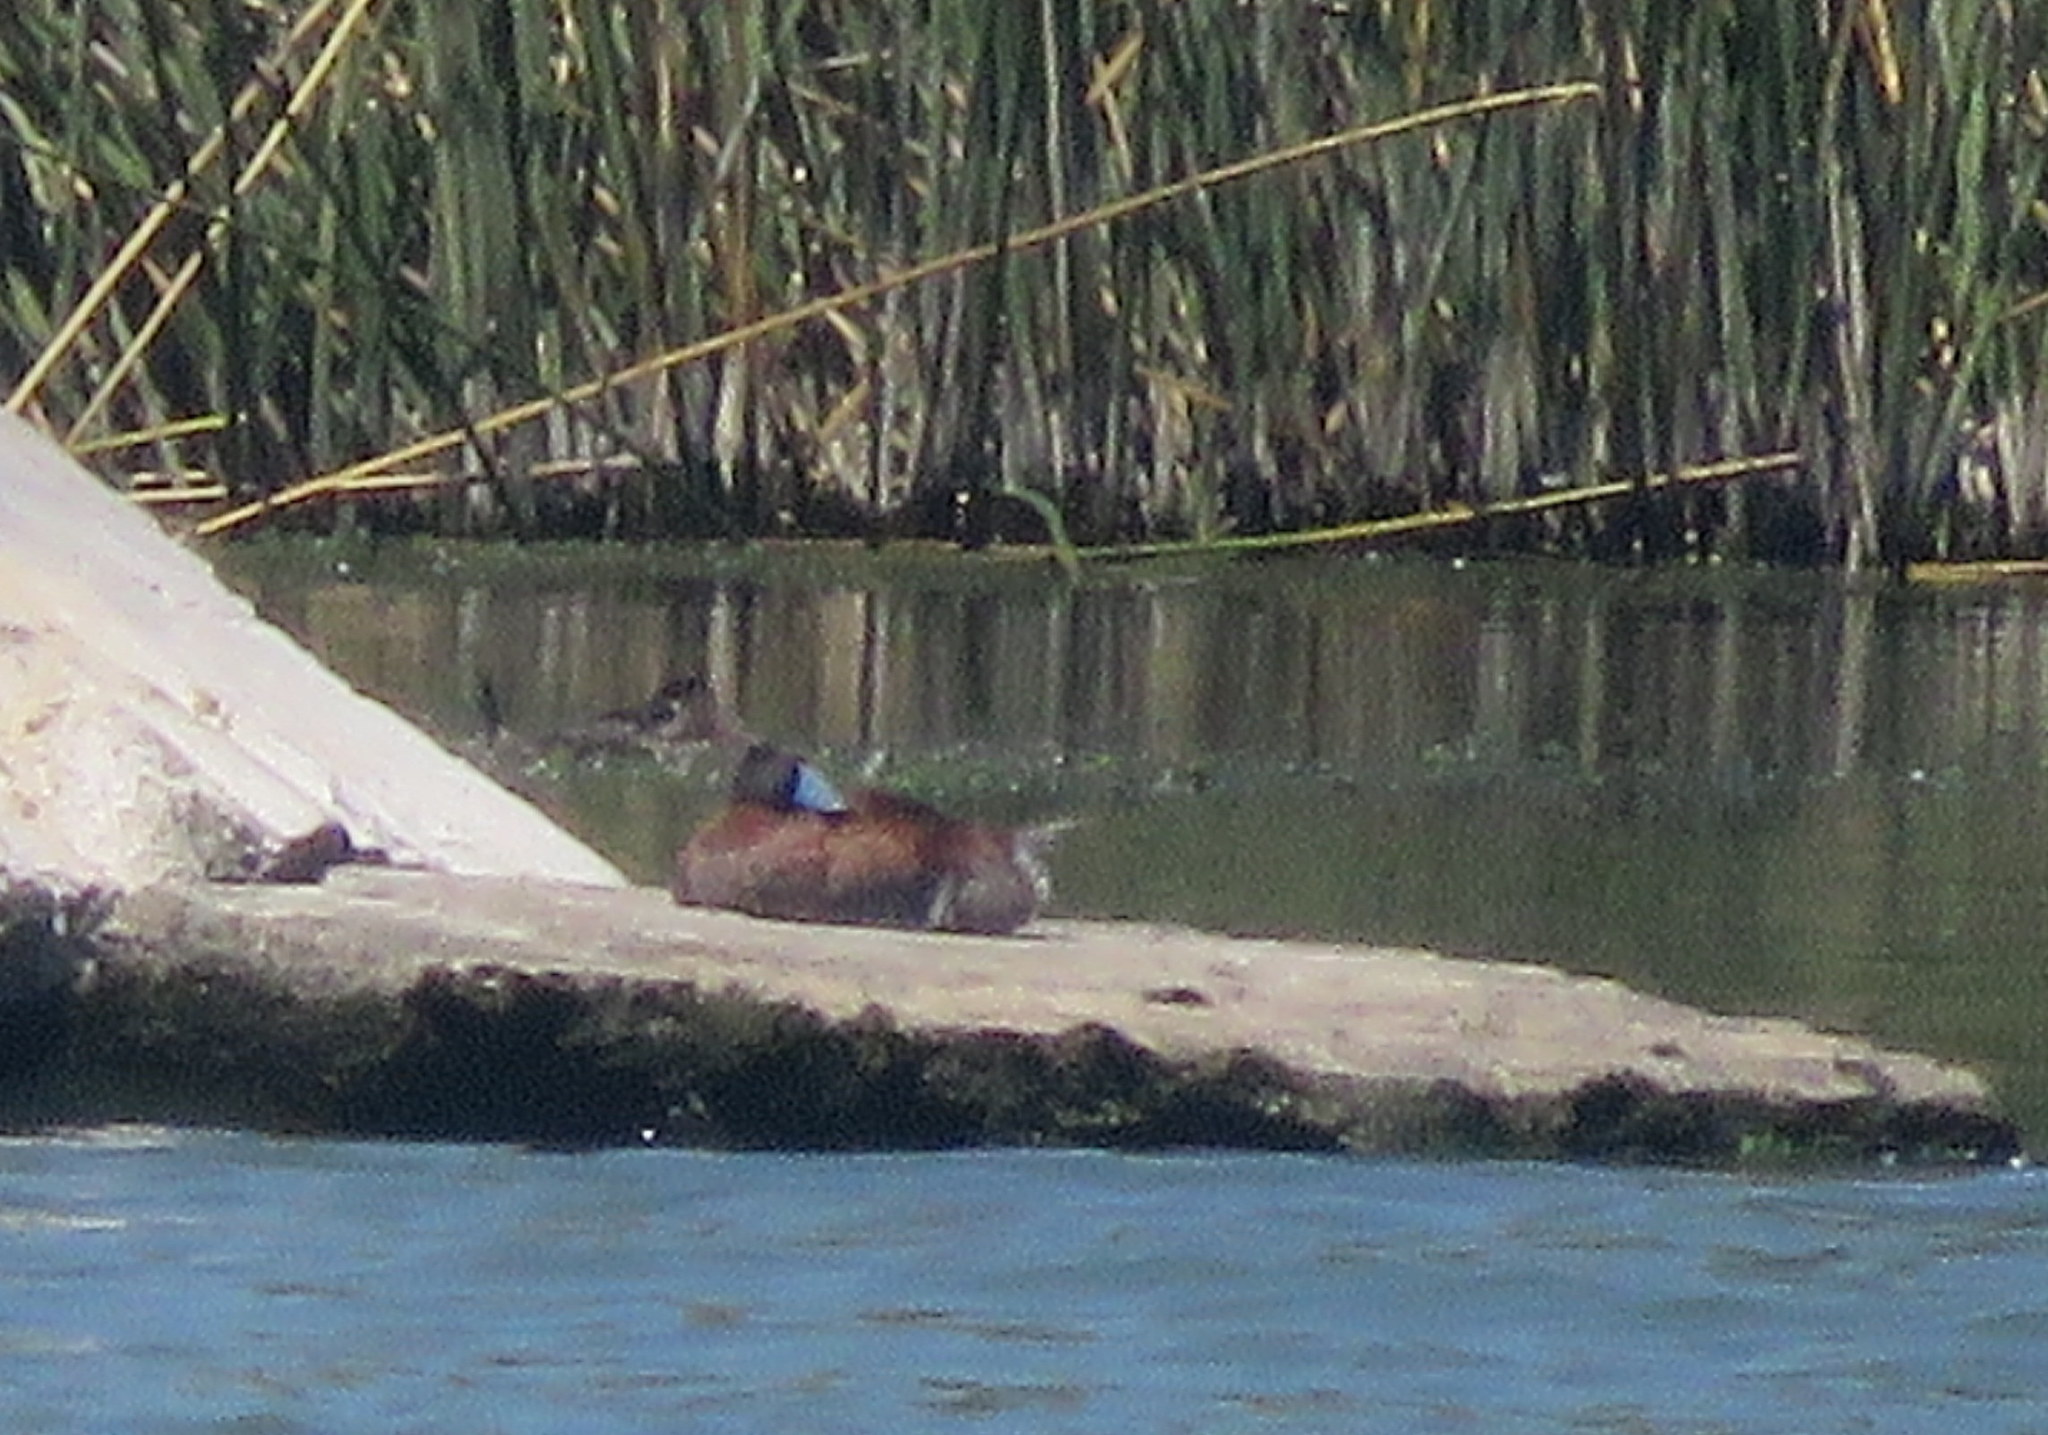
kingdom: Animalia
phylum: Chordata
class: Aves
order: Anseriformes
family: Anatidae
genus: Oxyura
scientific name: Oxyura vittata
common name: Lake duck
